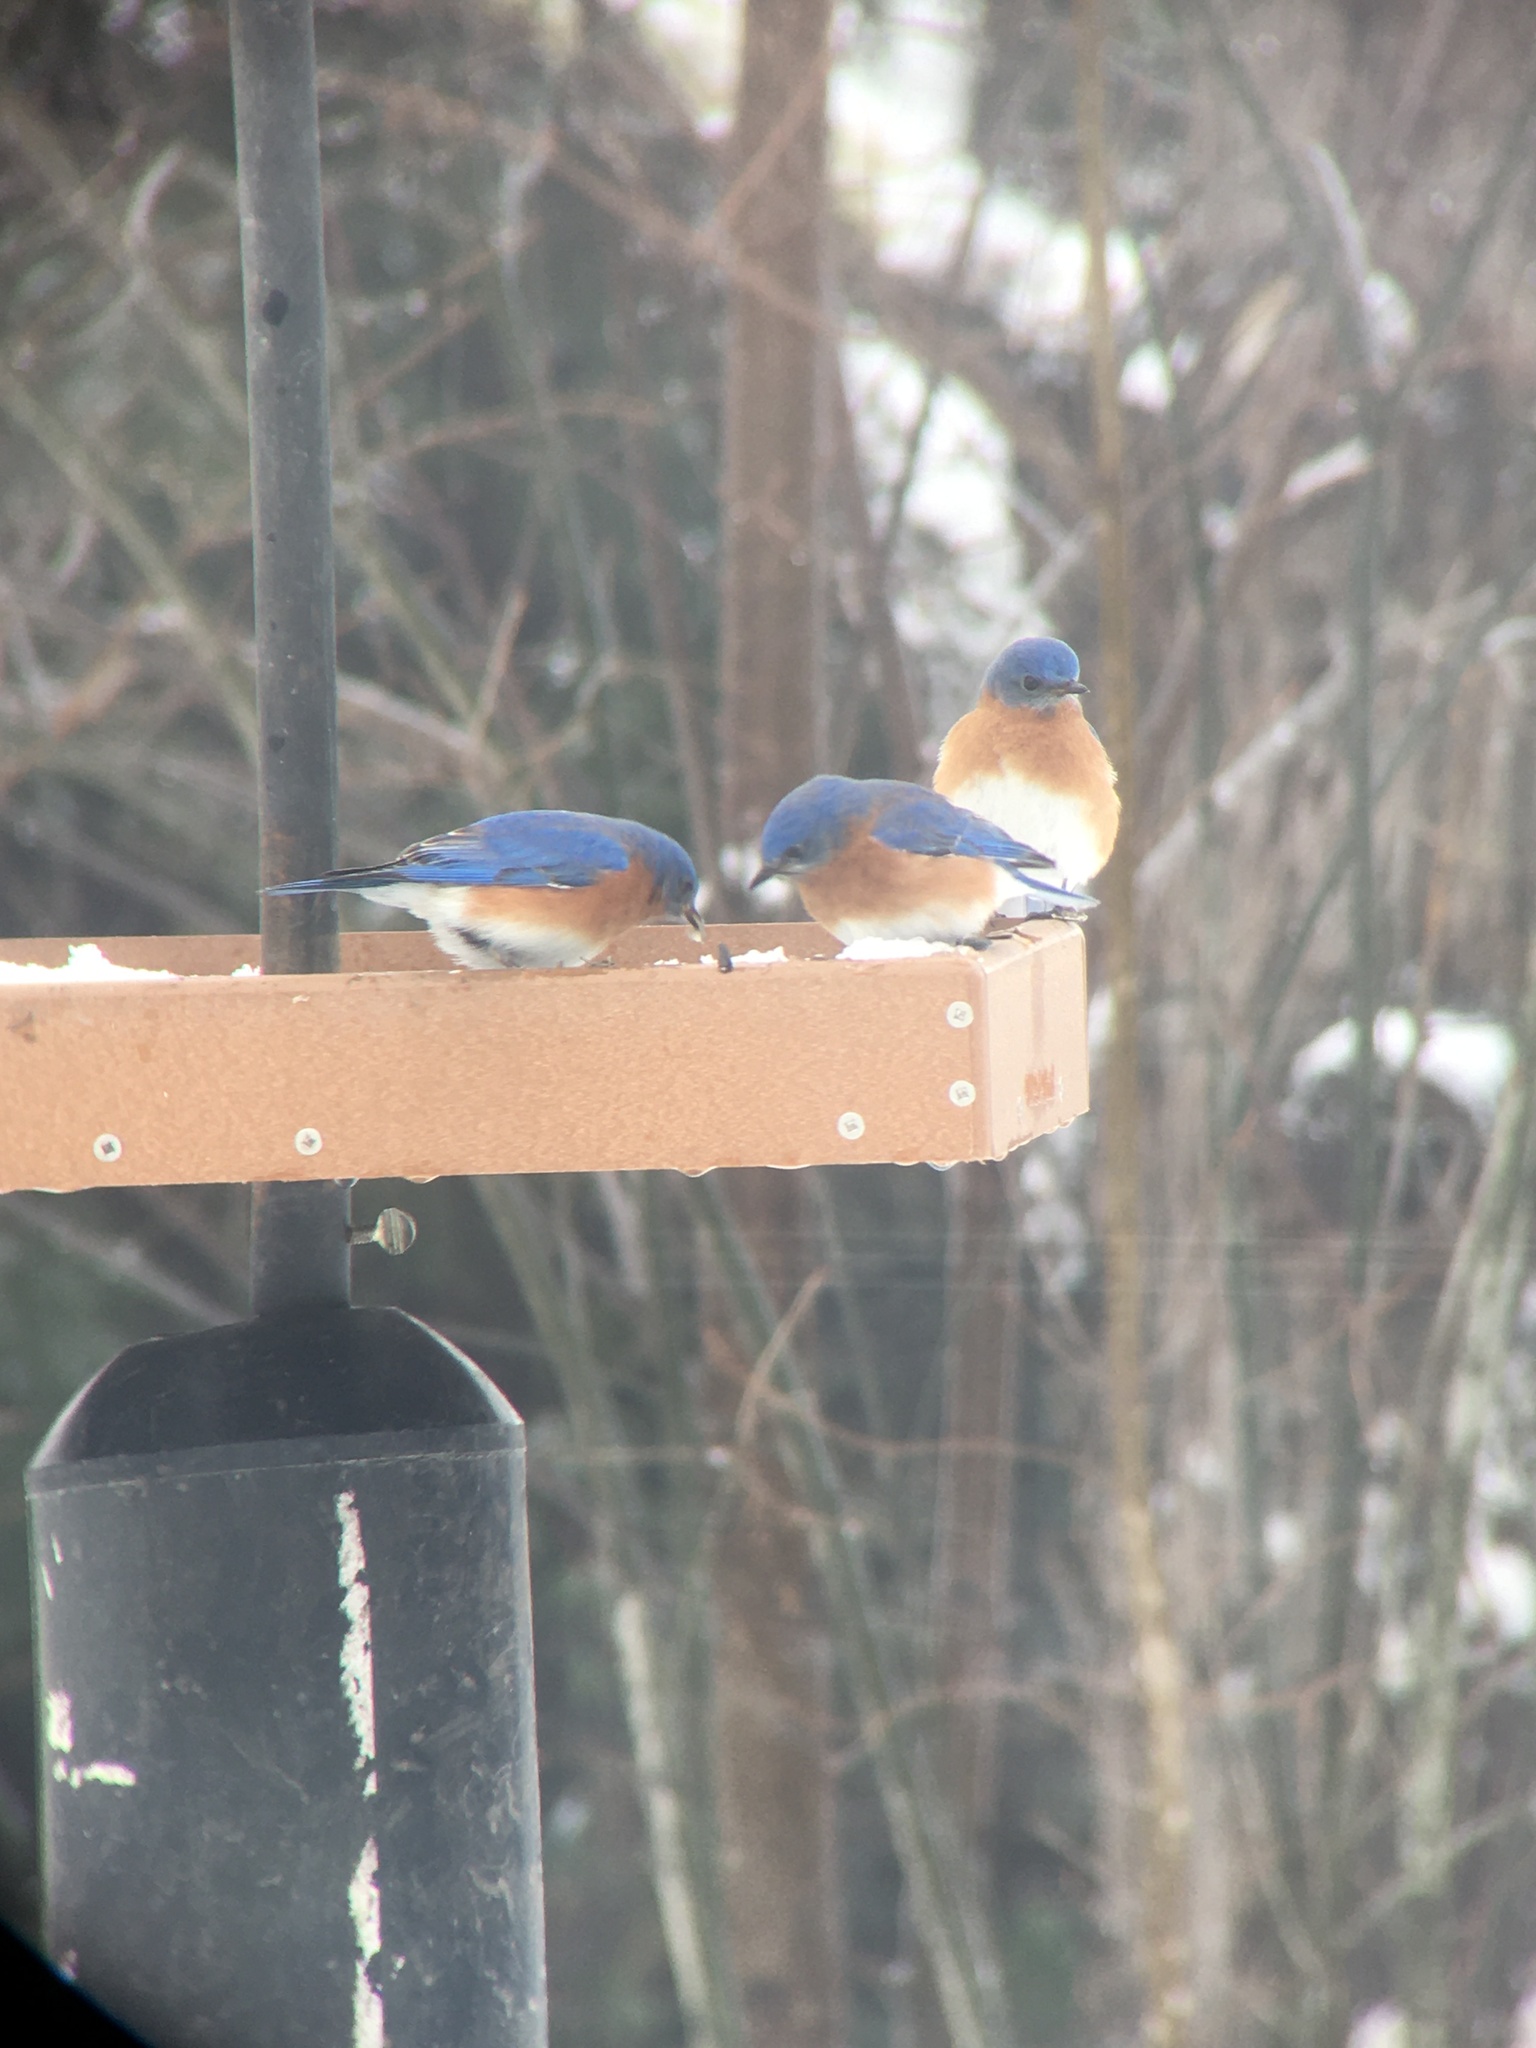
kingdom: Animalia
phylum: Chordata
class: Aves
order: Passeriformes
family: Turdidae
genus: Sialia
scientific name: Sialia sialis
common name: Eastern bluebird
